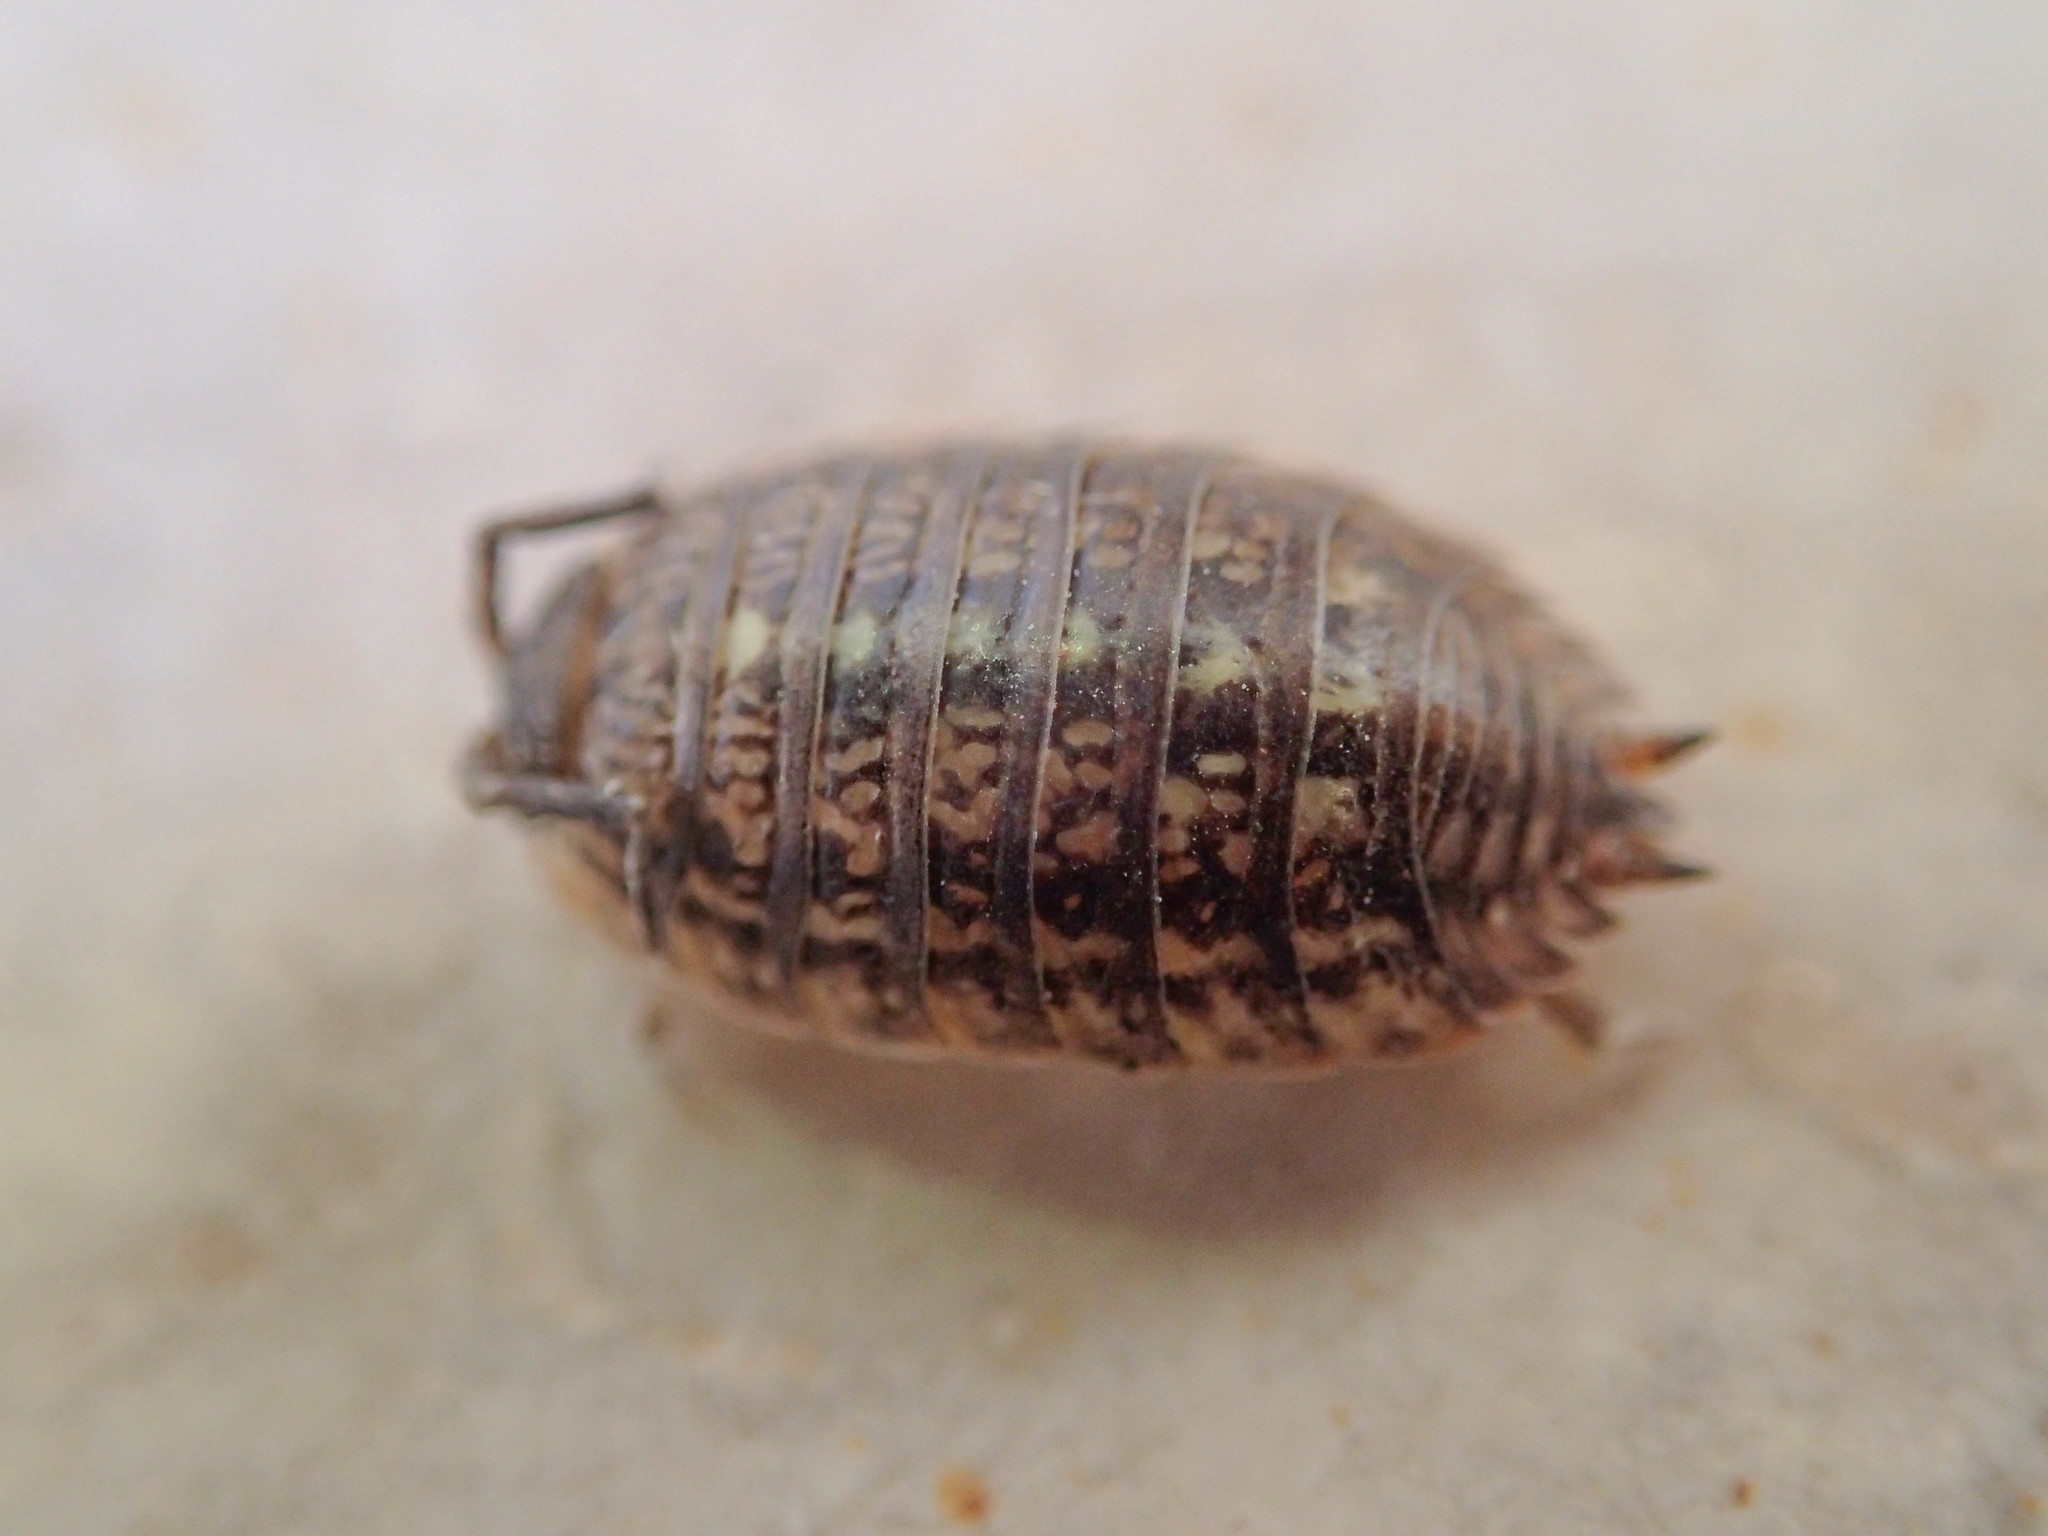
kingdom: Animalia
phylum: Arthropoda
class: Malacostraca
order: Isopoda
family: Trachelipodidae
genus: Trachelipus
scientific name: Trachelipus razzautii
